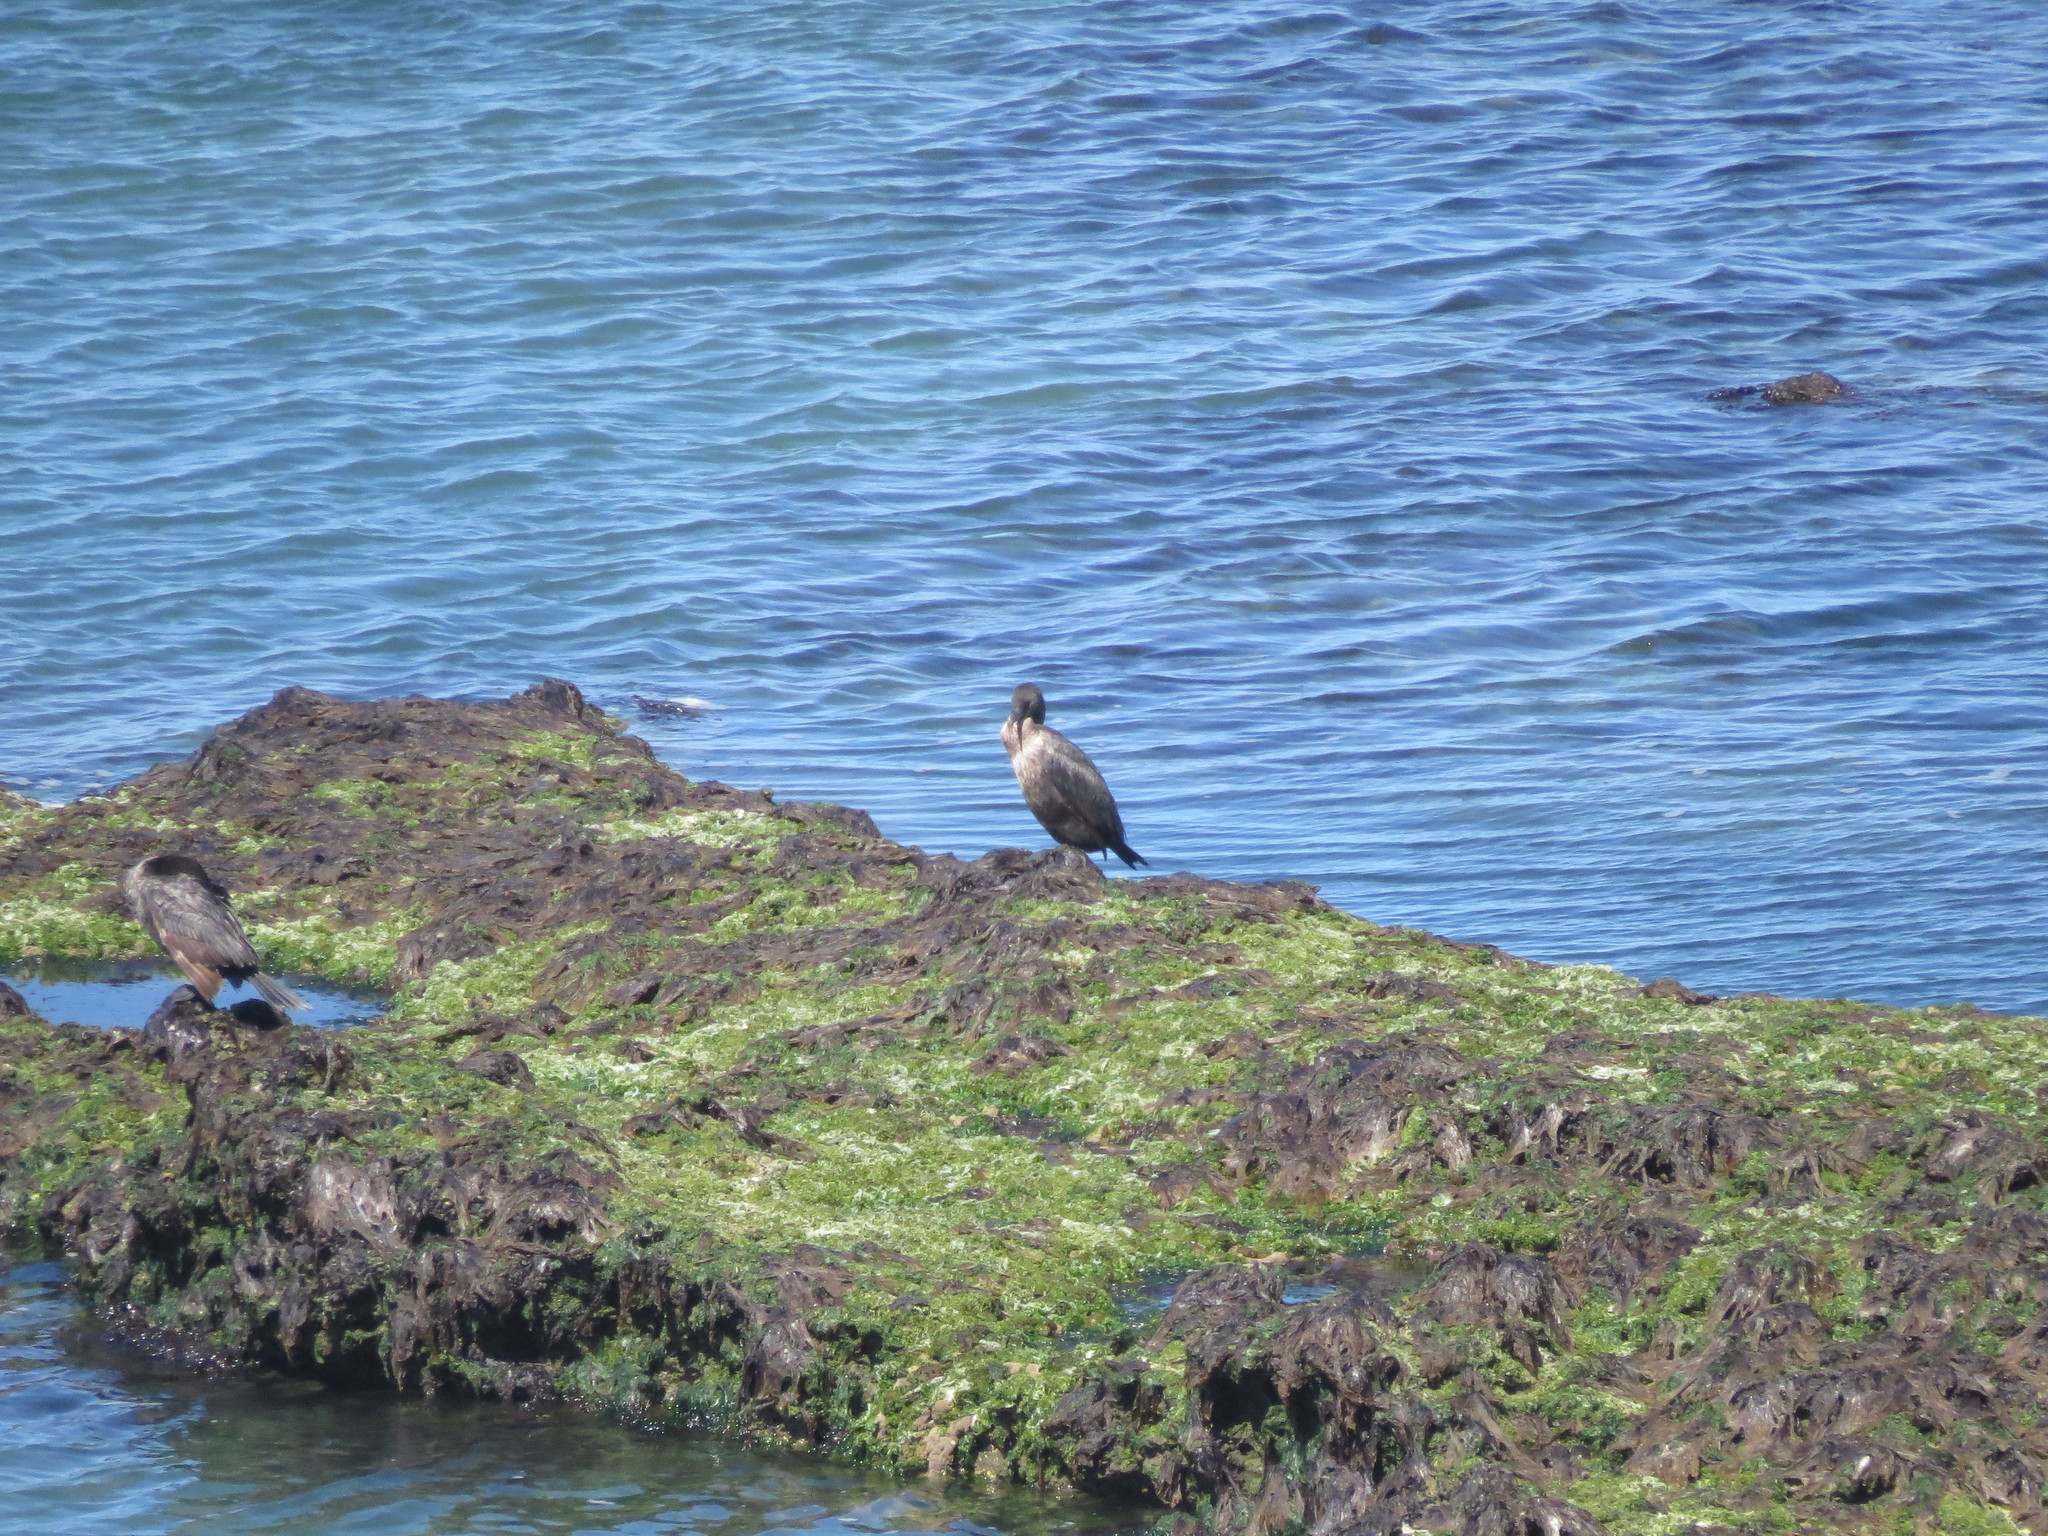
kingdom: Animalia
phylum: Chordata
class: Aves
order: Suliformes
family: Phalacrocoracidae
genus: Phalacrocorax
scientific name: Phalacrocorax brasilianus
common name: Neotropic cormorant
